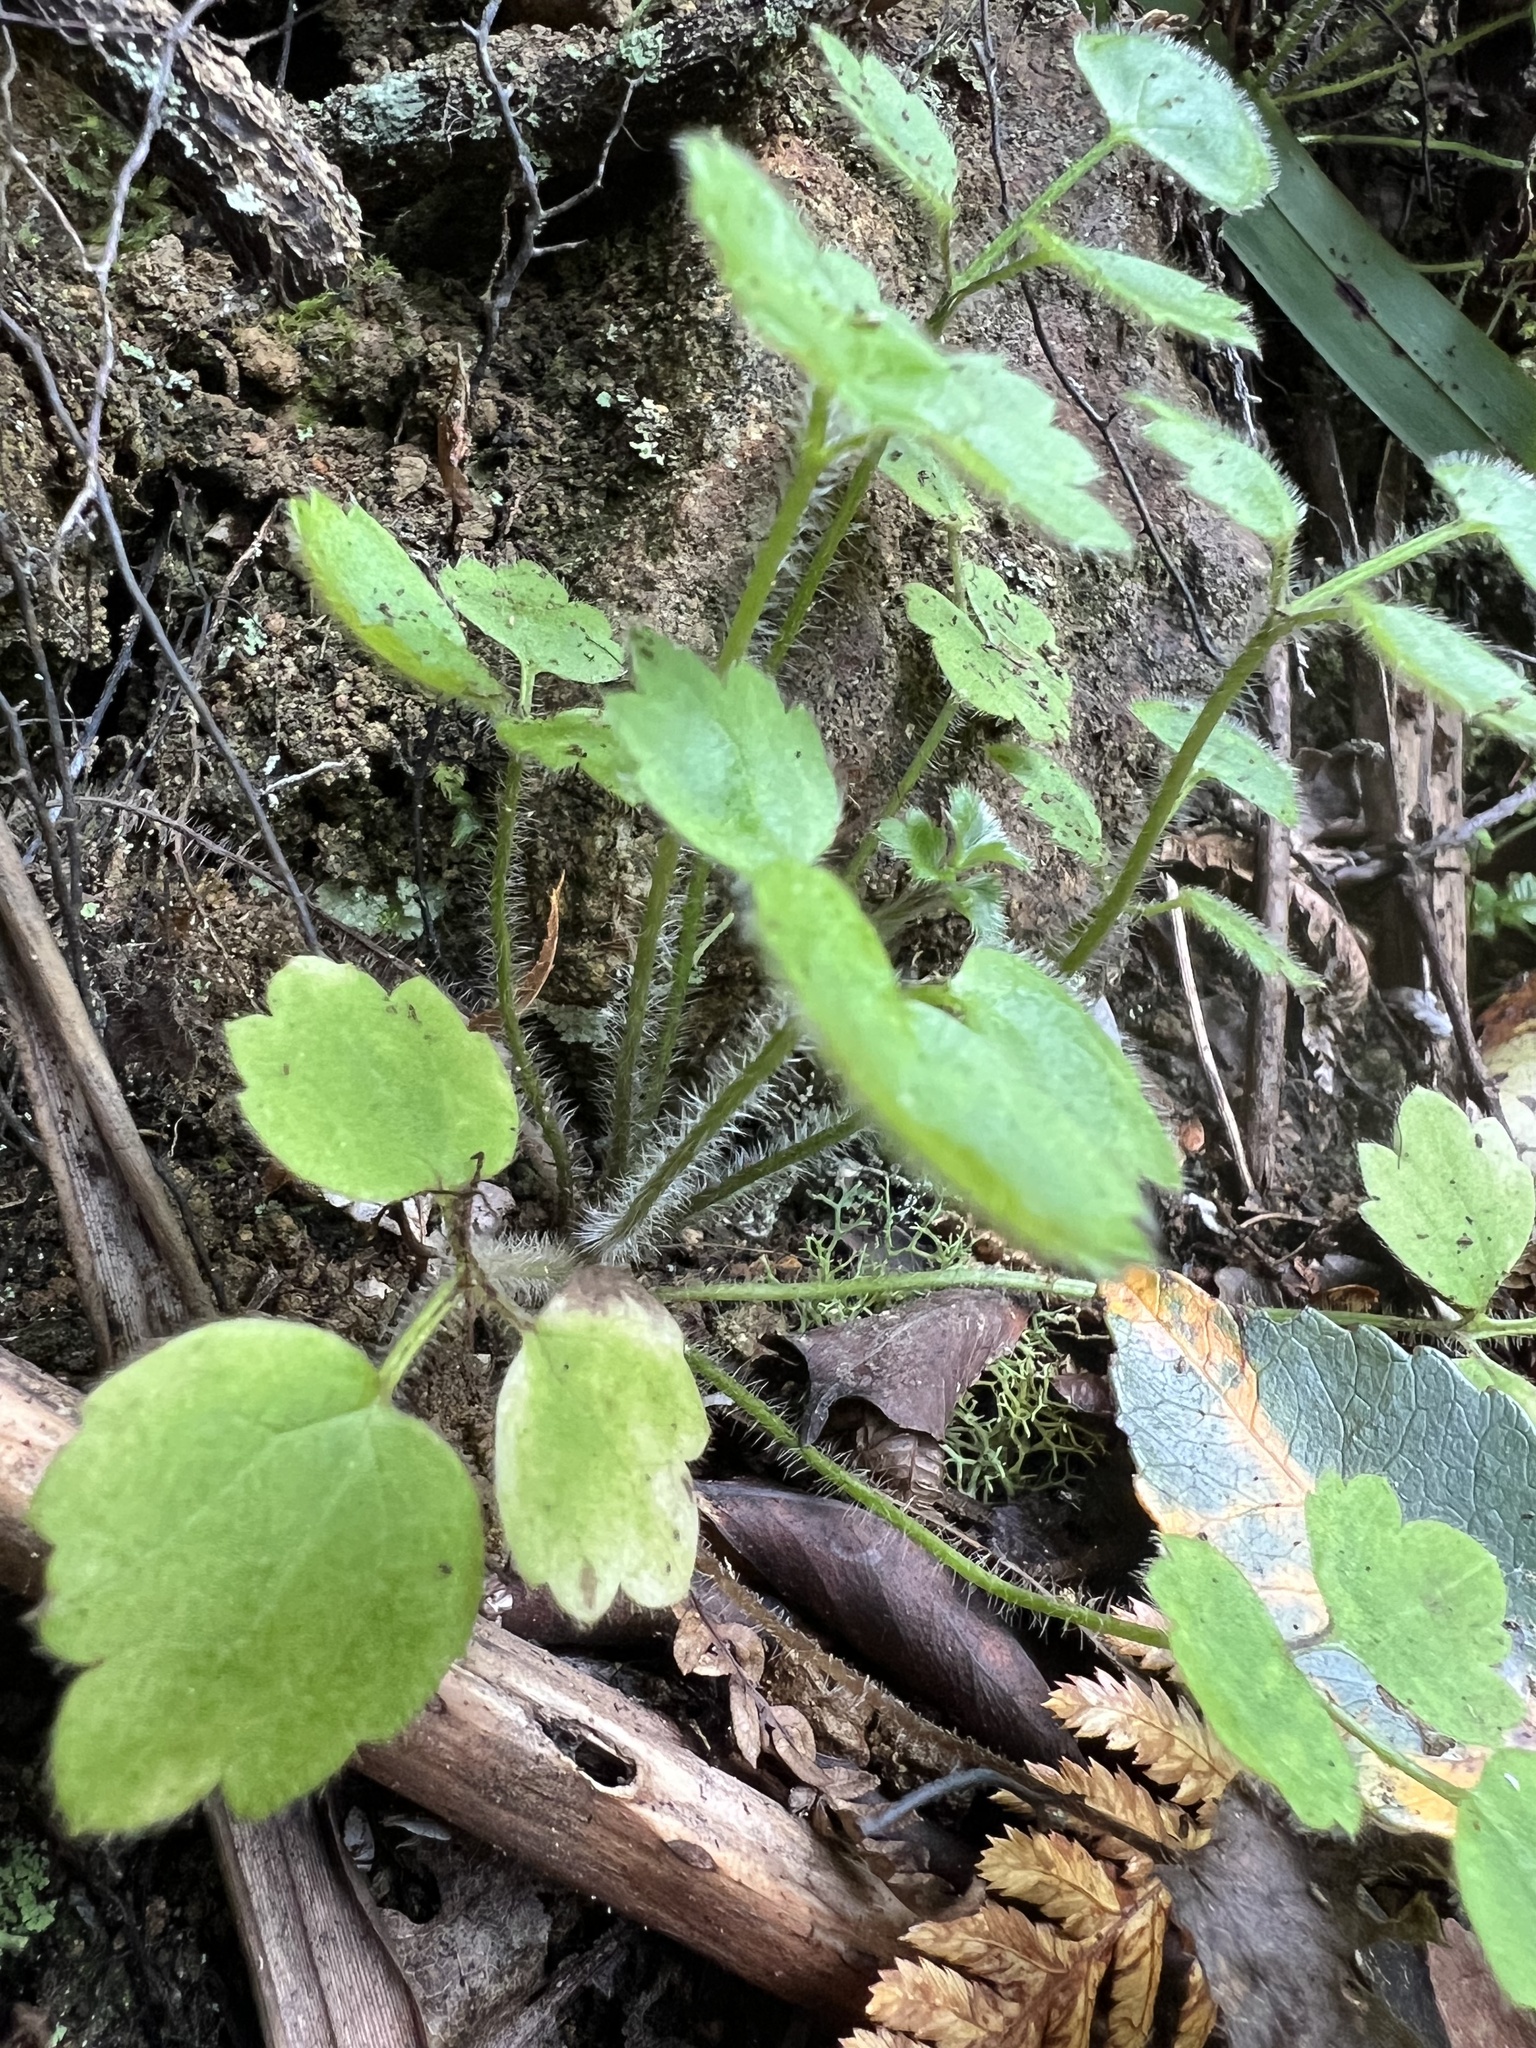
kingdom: Plantae
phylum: Tracheophyta
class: Magnoliopsida
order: Ranunculales
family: Ranunculaceae
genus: Ranunculus
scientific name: Ranunculus reflexus
